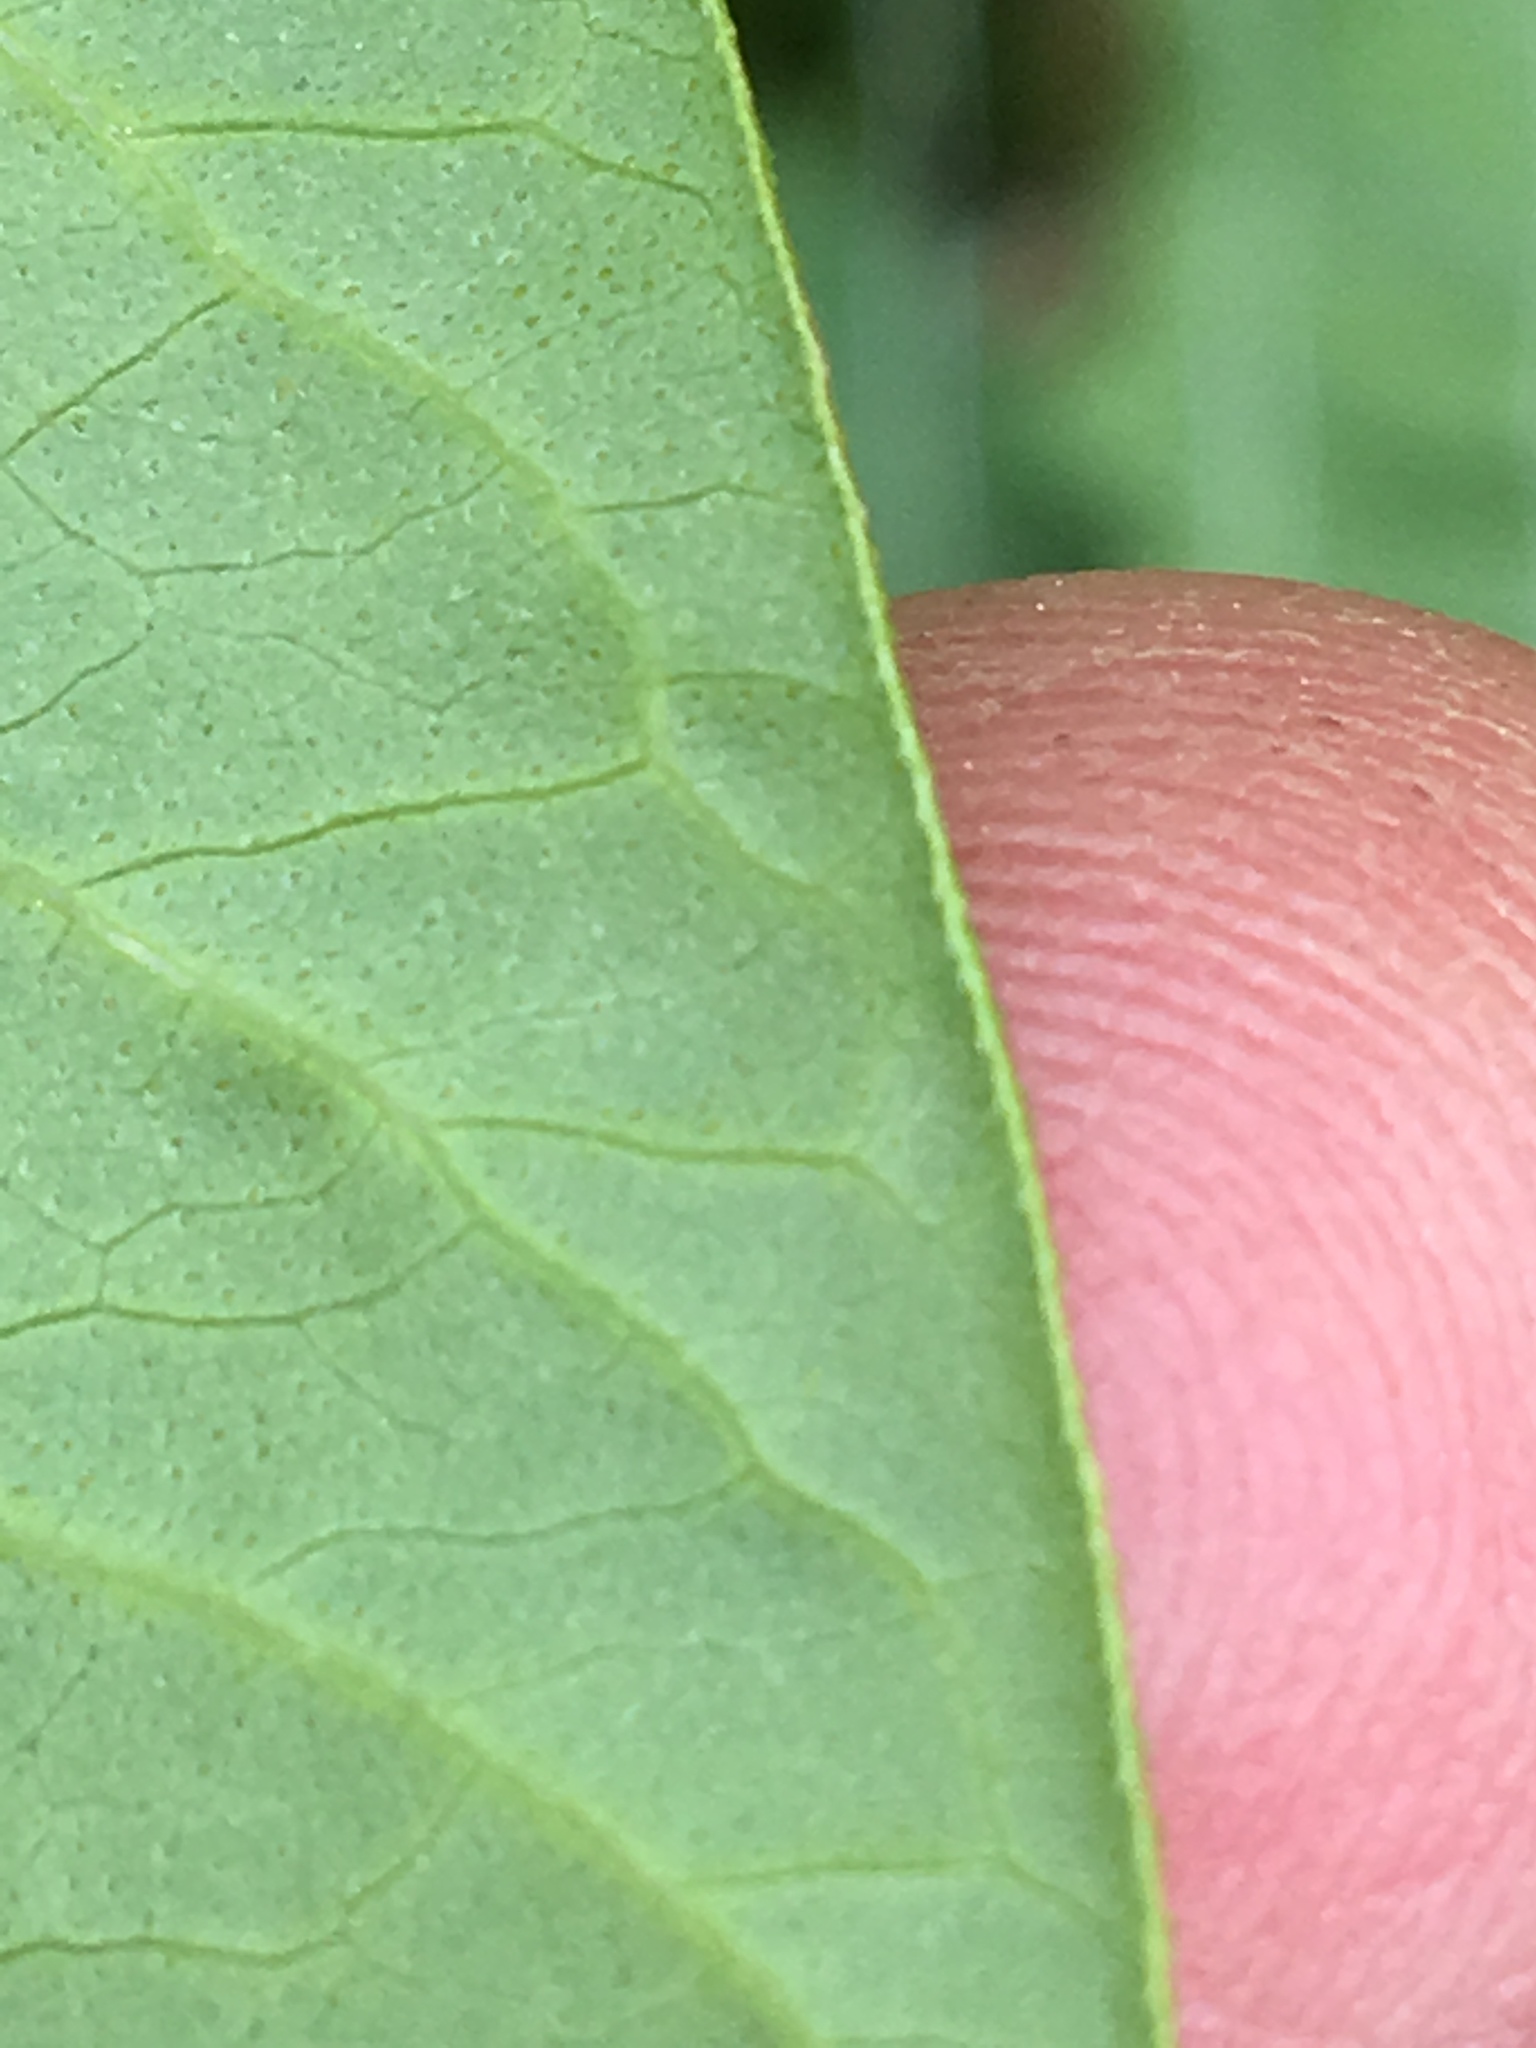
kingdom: Plantae
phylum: Tracheophyta
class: Magnoliopsida
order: Caryophyllales
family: Polygonaceae
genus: Persicaria
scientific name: Persicaria lapathifolia
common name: Curlytop knotweed
